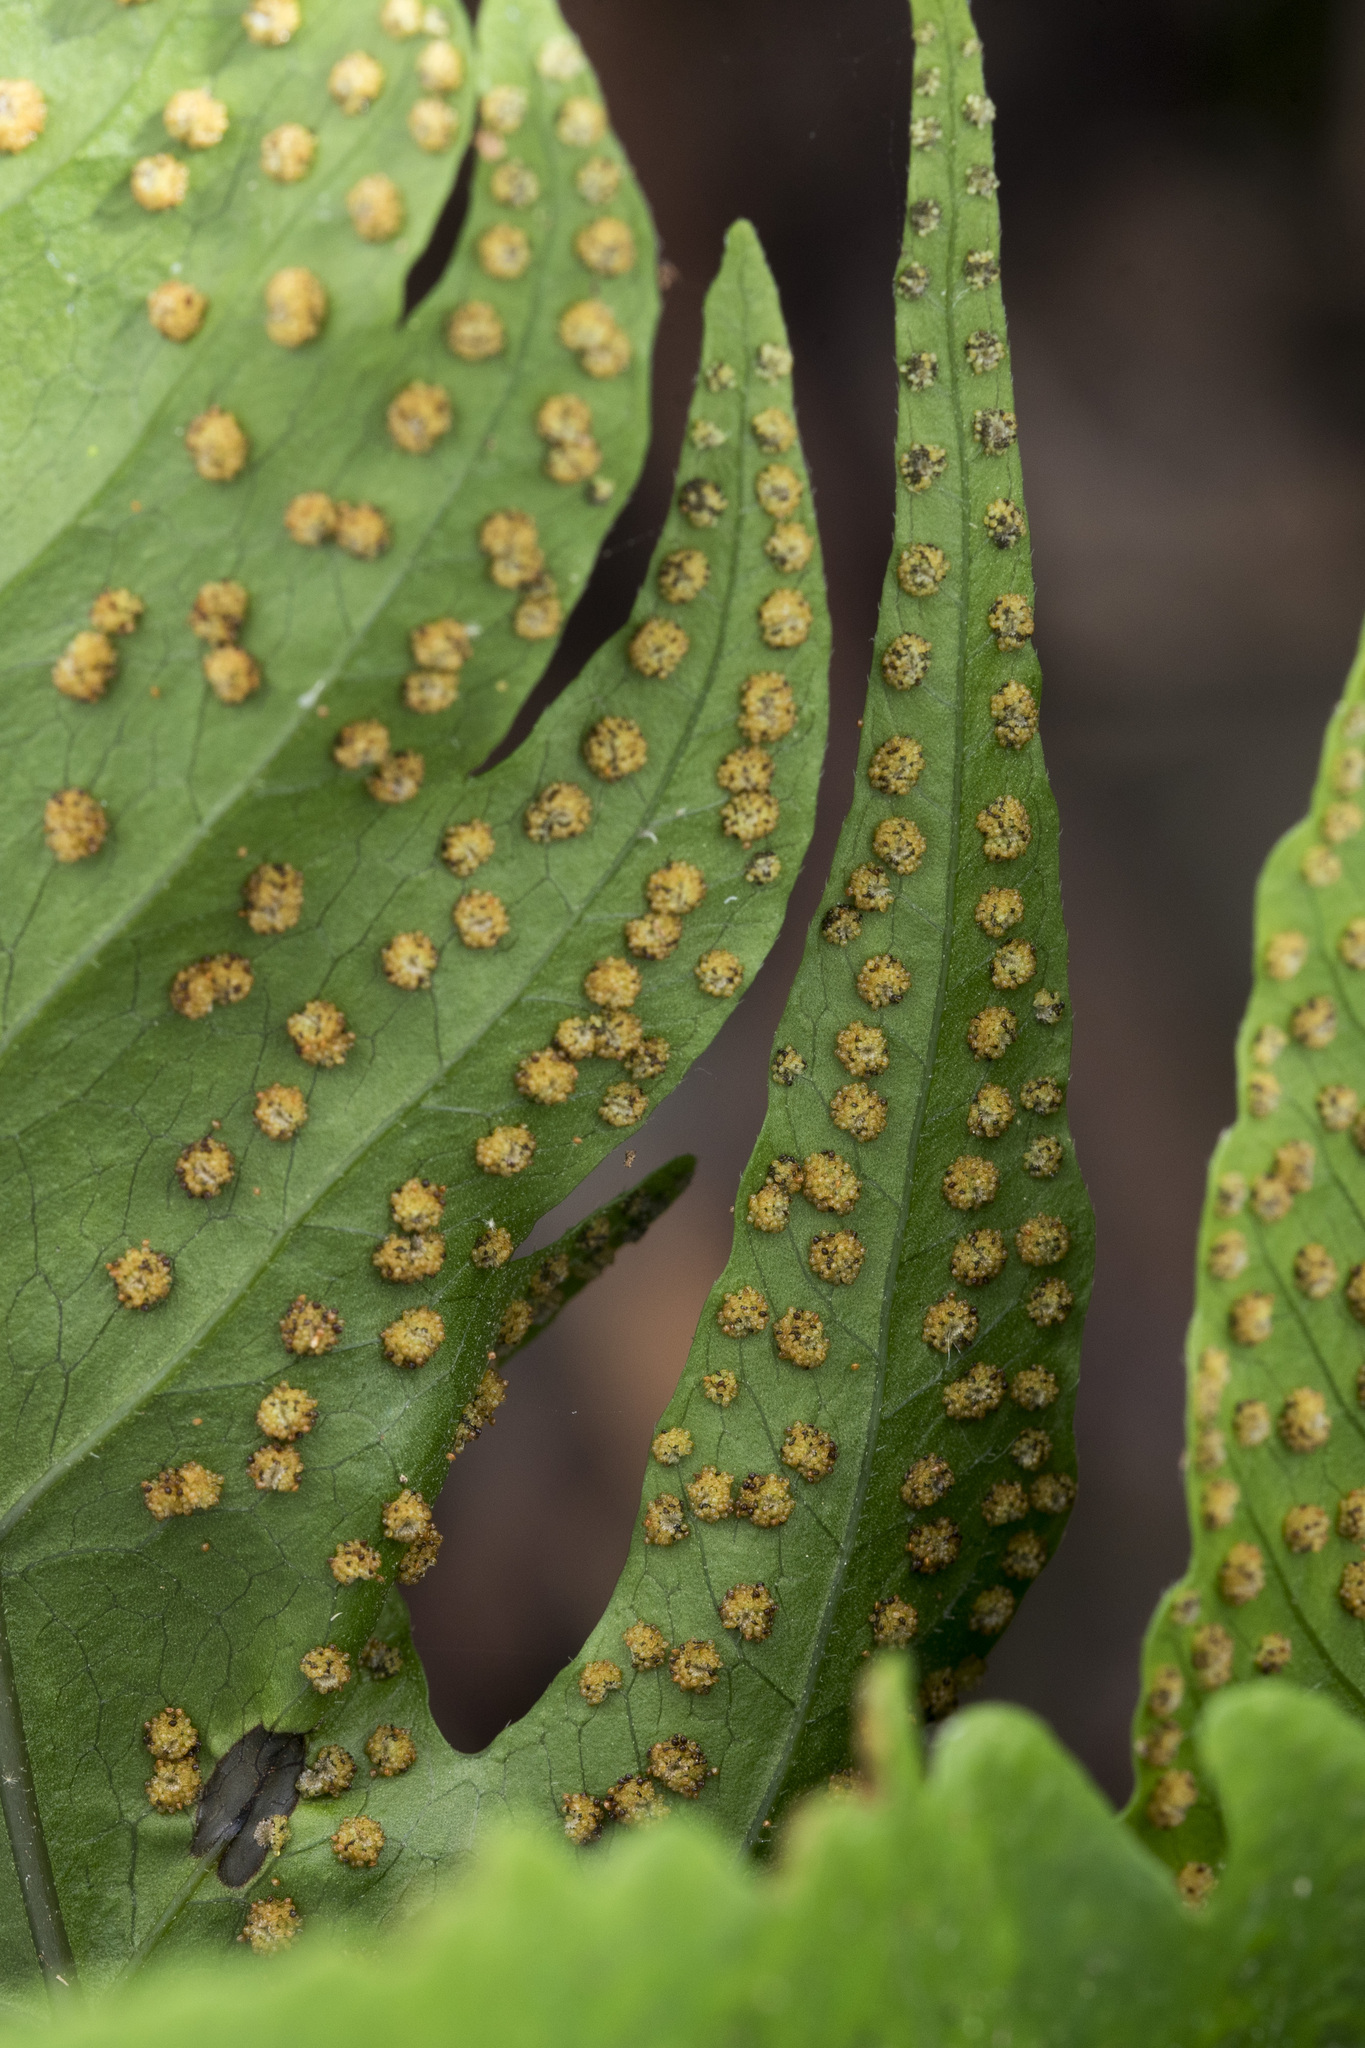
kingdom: Plantae
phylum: Tracheophyta
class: Polypodiopsida
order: Polypodiales
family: Tectariaceae
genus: Tectaria
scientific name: Tectaria subtriphylla
